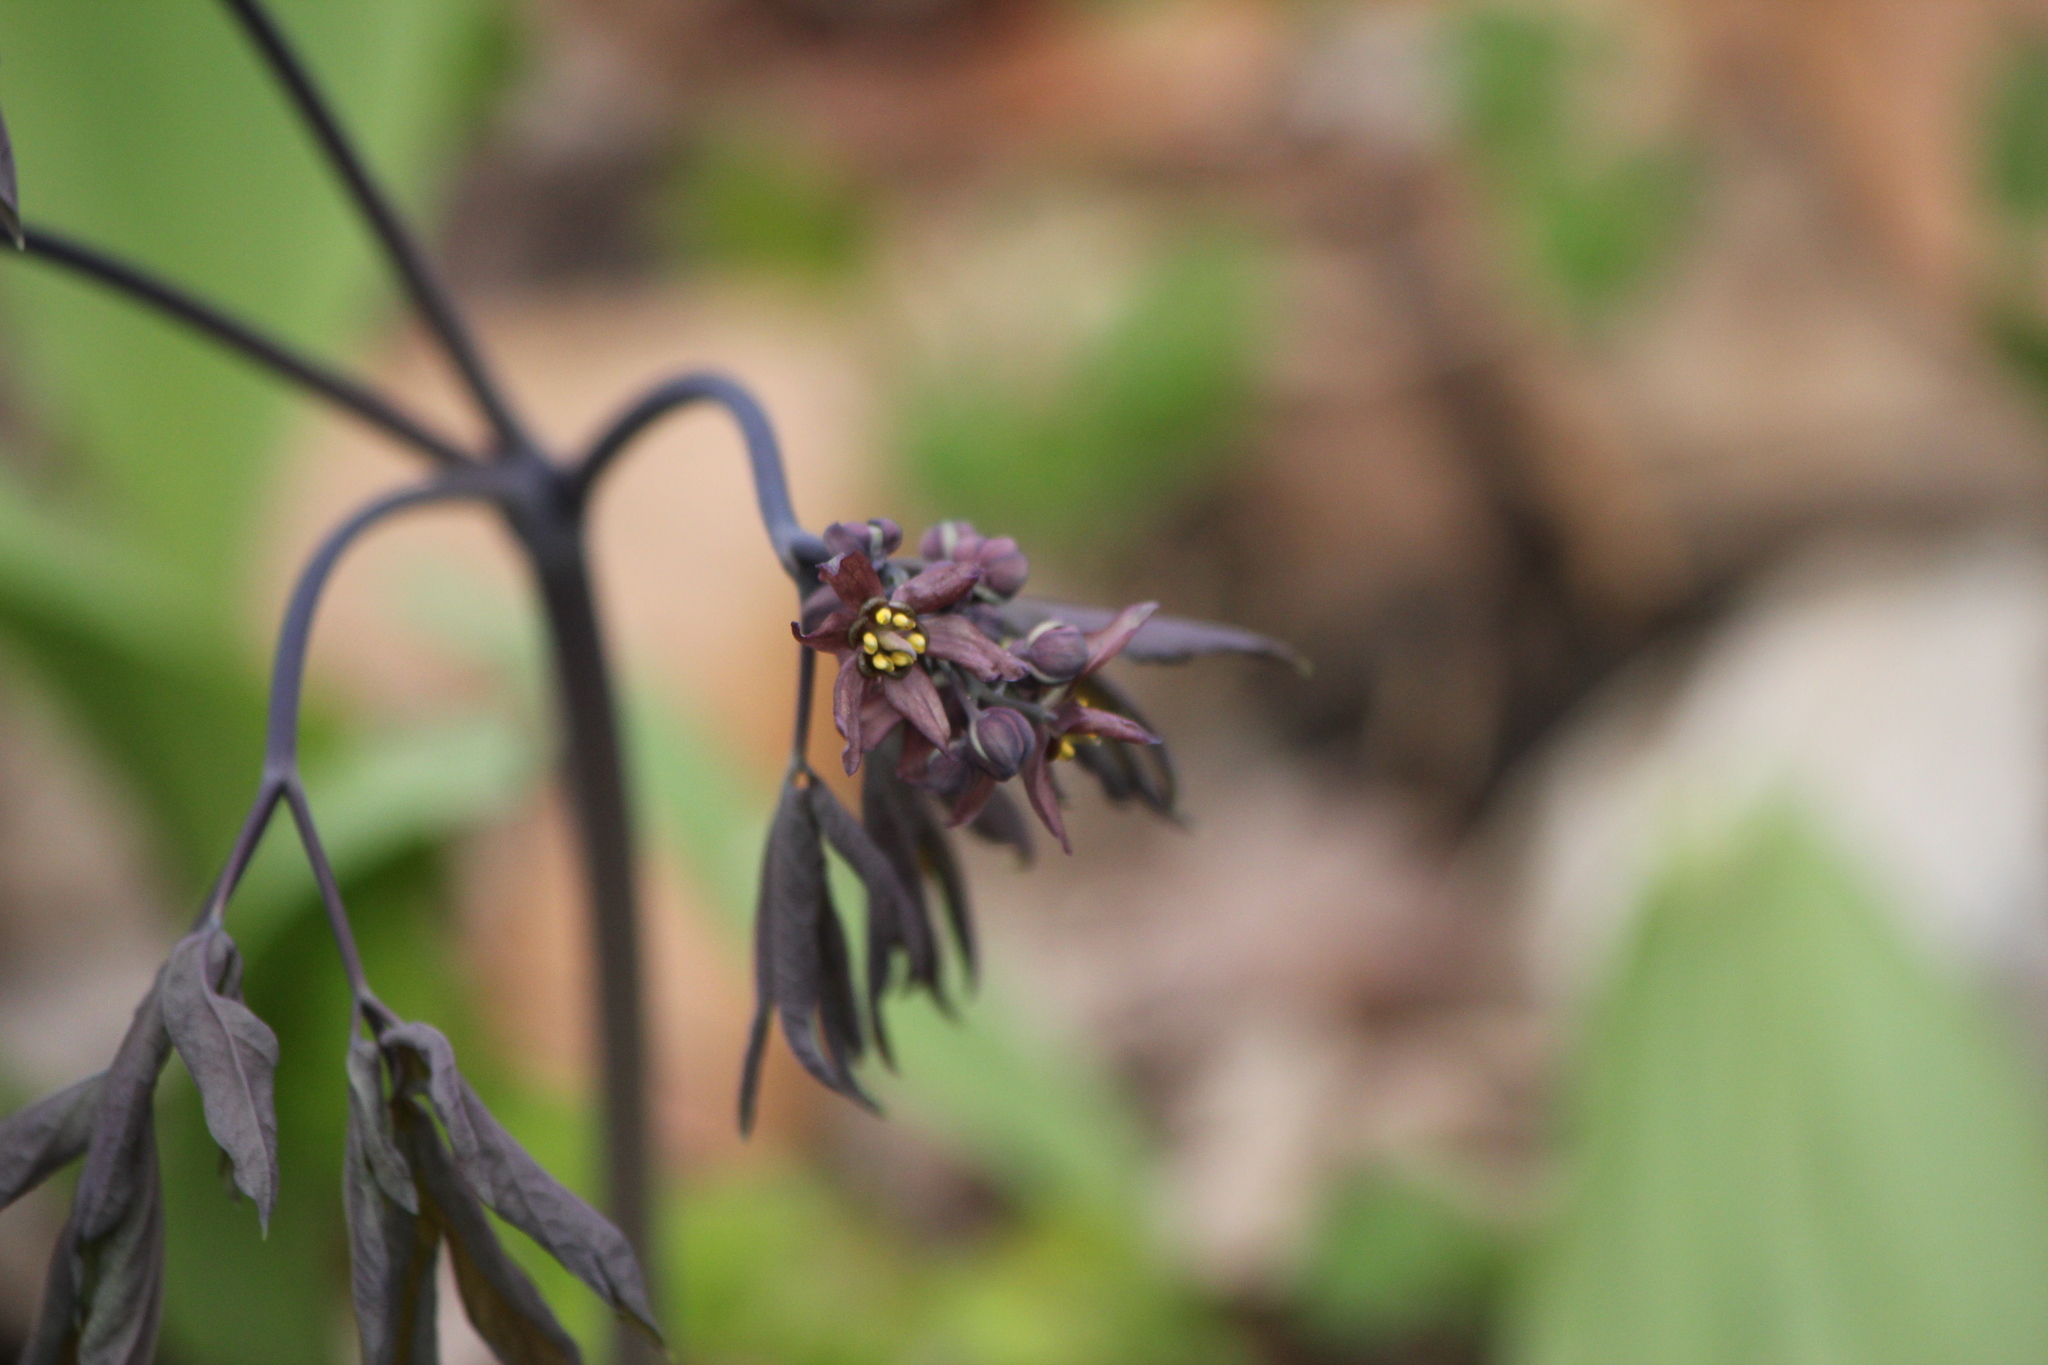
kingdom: Plantae
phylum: Tracheophyta
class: Magnoliopsida
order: Ranunculales
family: Berberidaceae
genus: Caulophyllum
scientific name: Caulophyllum giganteum
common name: Blue cohosh
